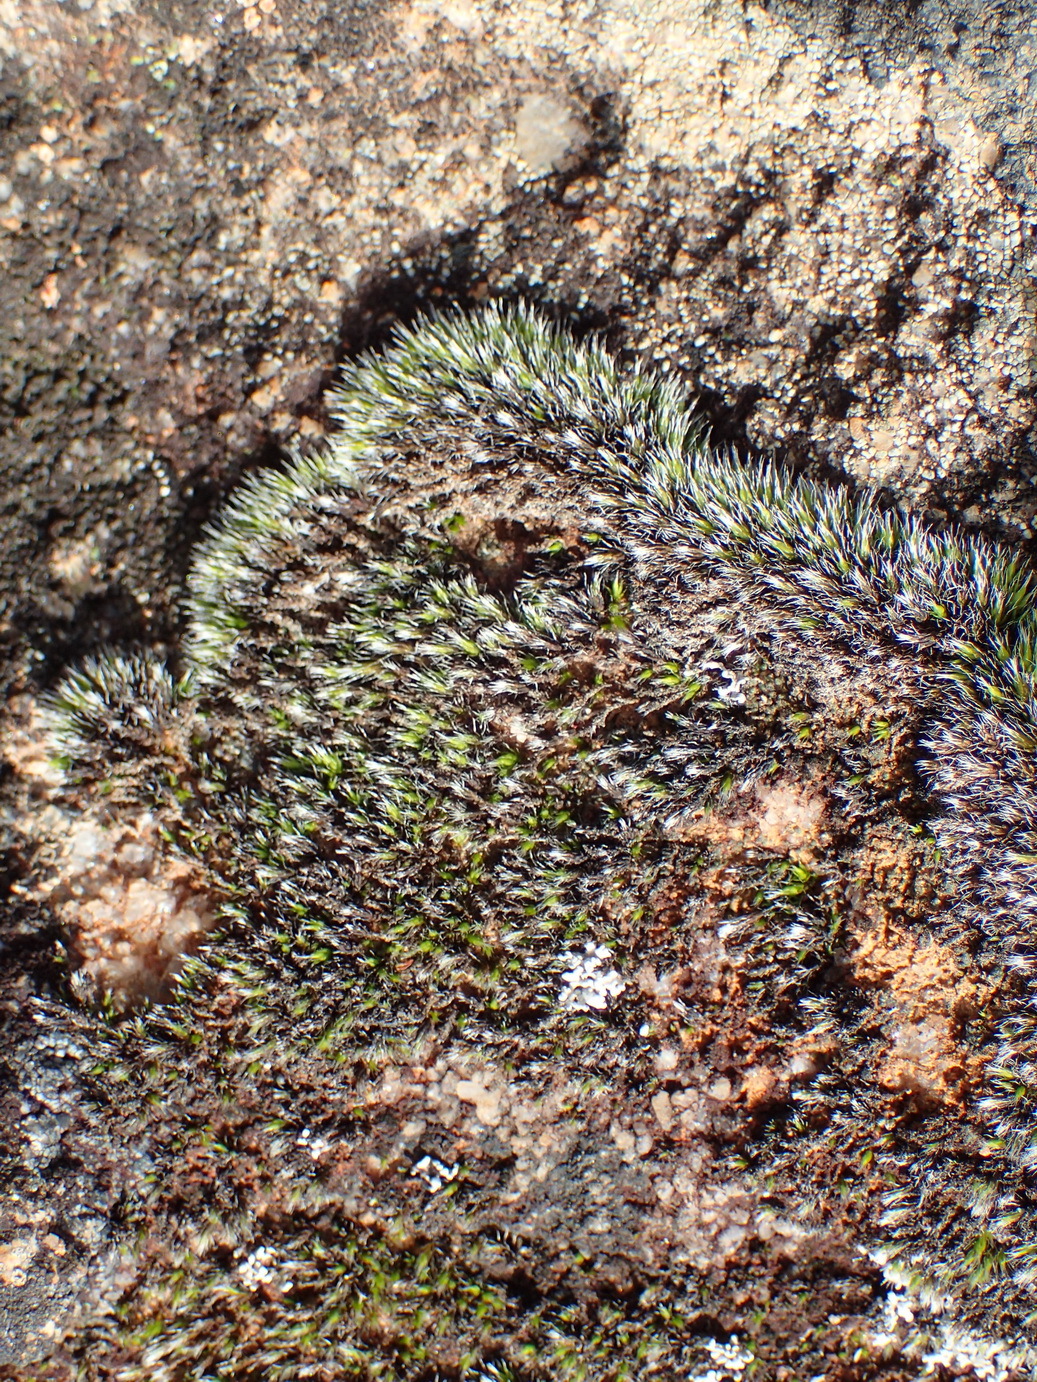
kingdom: Plantae
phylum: Bryophyta
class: Bryopsida
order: Grimmiales
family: Grimmiaceae
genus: Grimmia
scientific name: Grimmia laevigata
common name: Hoary grimmia
